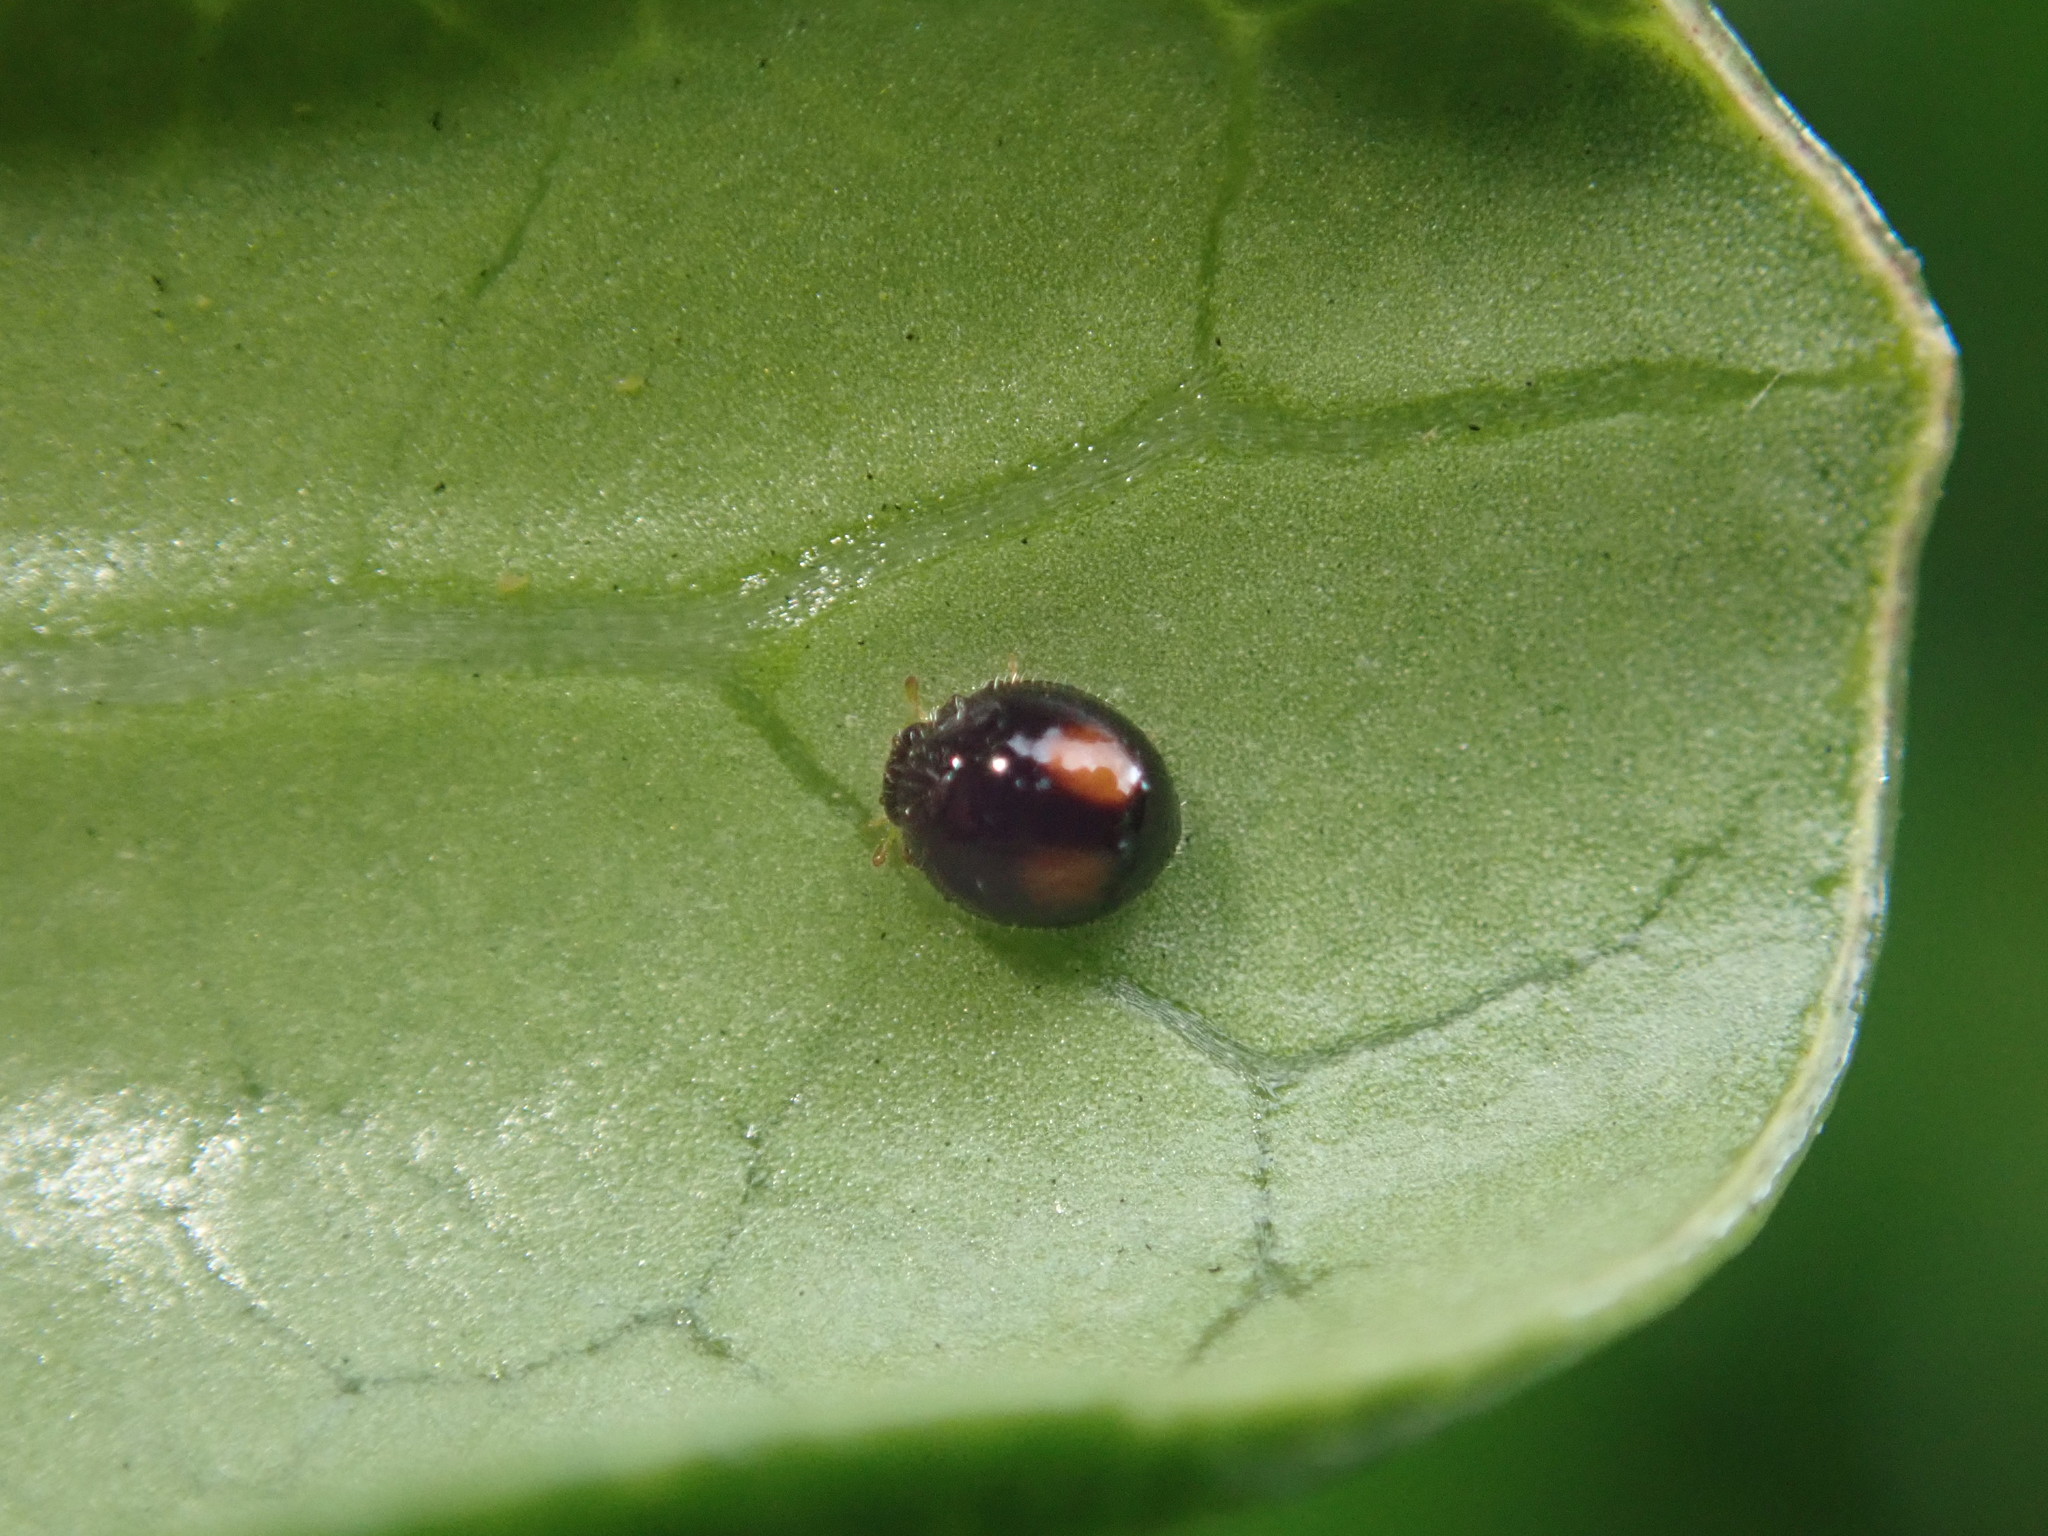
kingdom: Animalia
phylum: Arthropoda
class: Insecta
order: Coleoptera
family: Coccinellidae
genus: Serangium
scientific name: Serangium maculigerum
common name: Lady beetle
